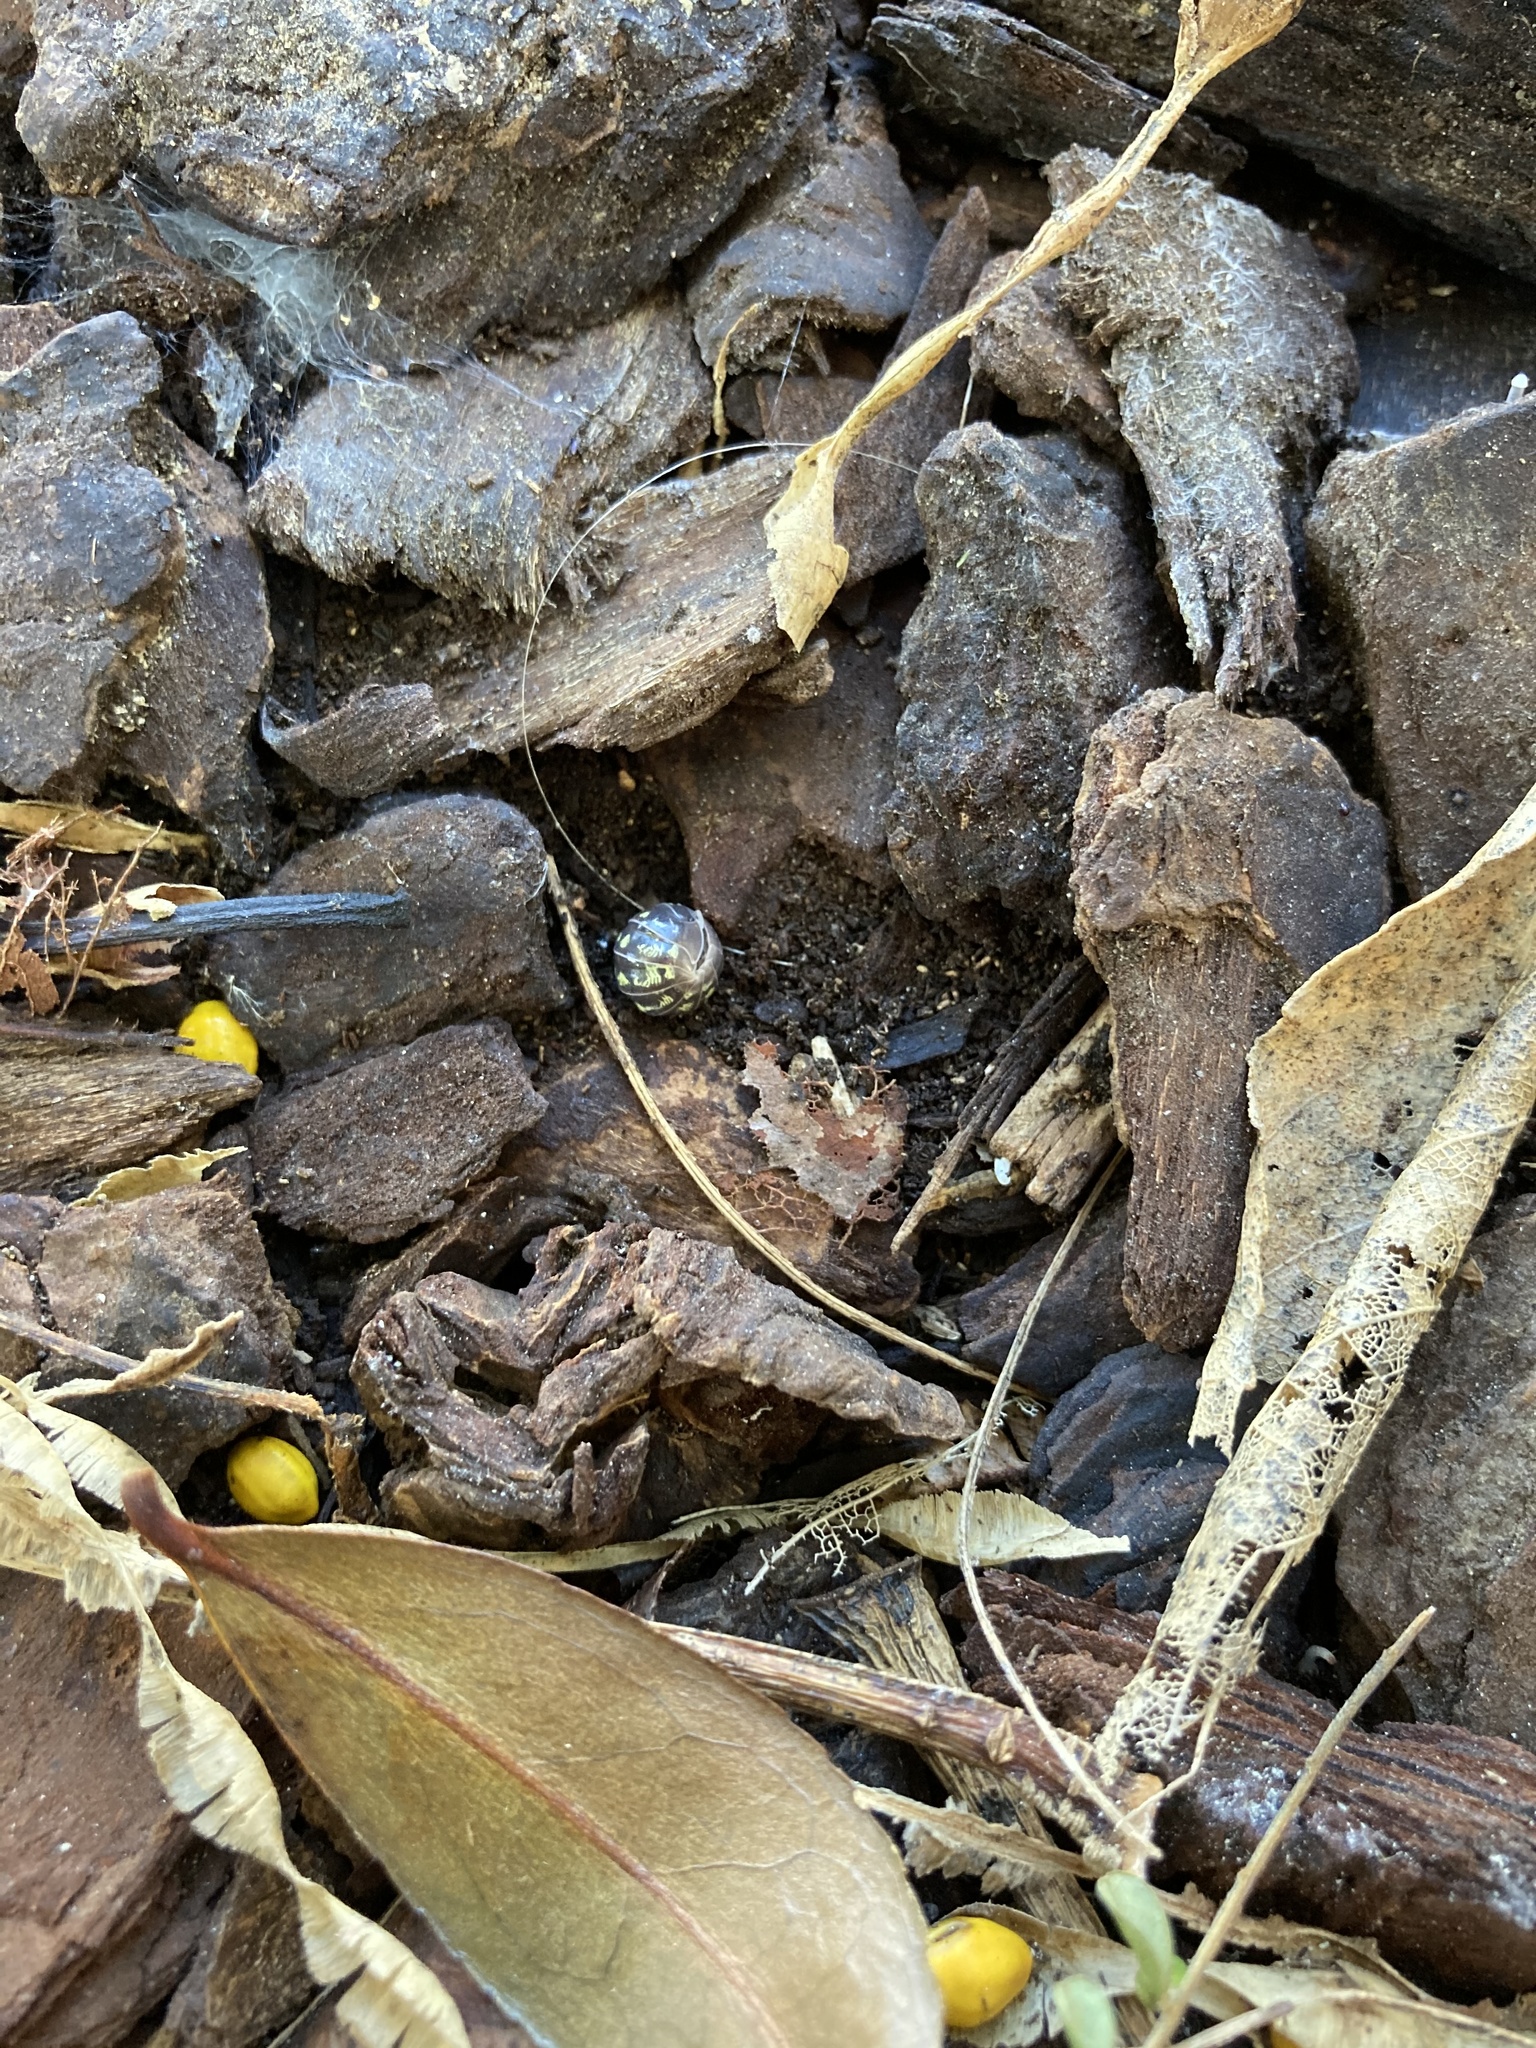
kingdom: Animalia
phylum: Arthropoda
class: Malacostraca
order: Isopoda
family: Armadillidiidae
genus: Armadillidium
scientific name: Armadillidium vulgare
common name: Common pill woodlouse
